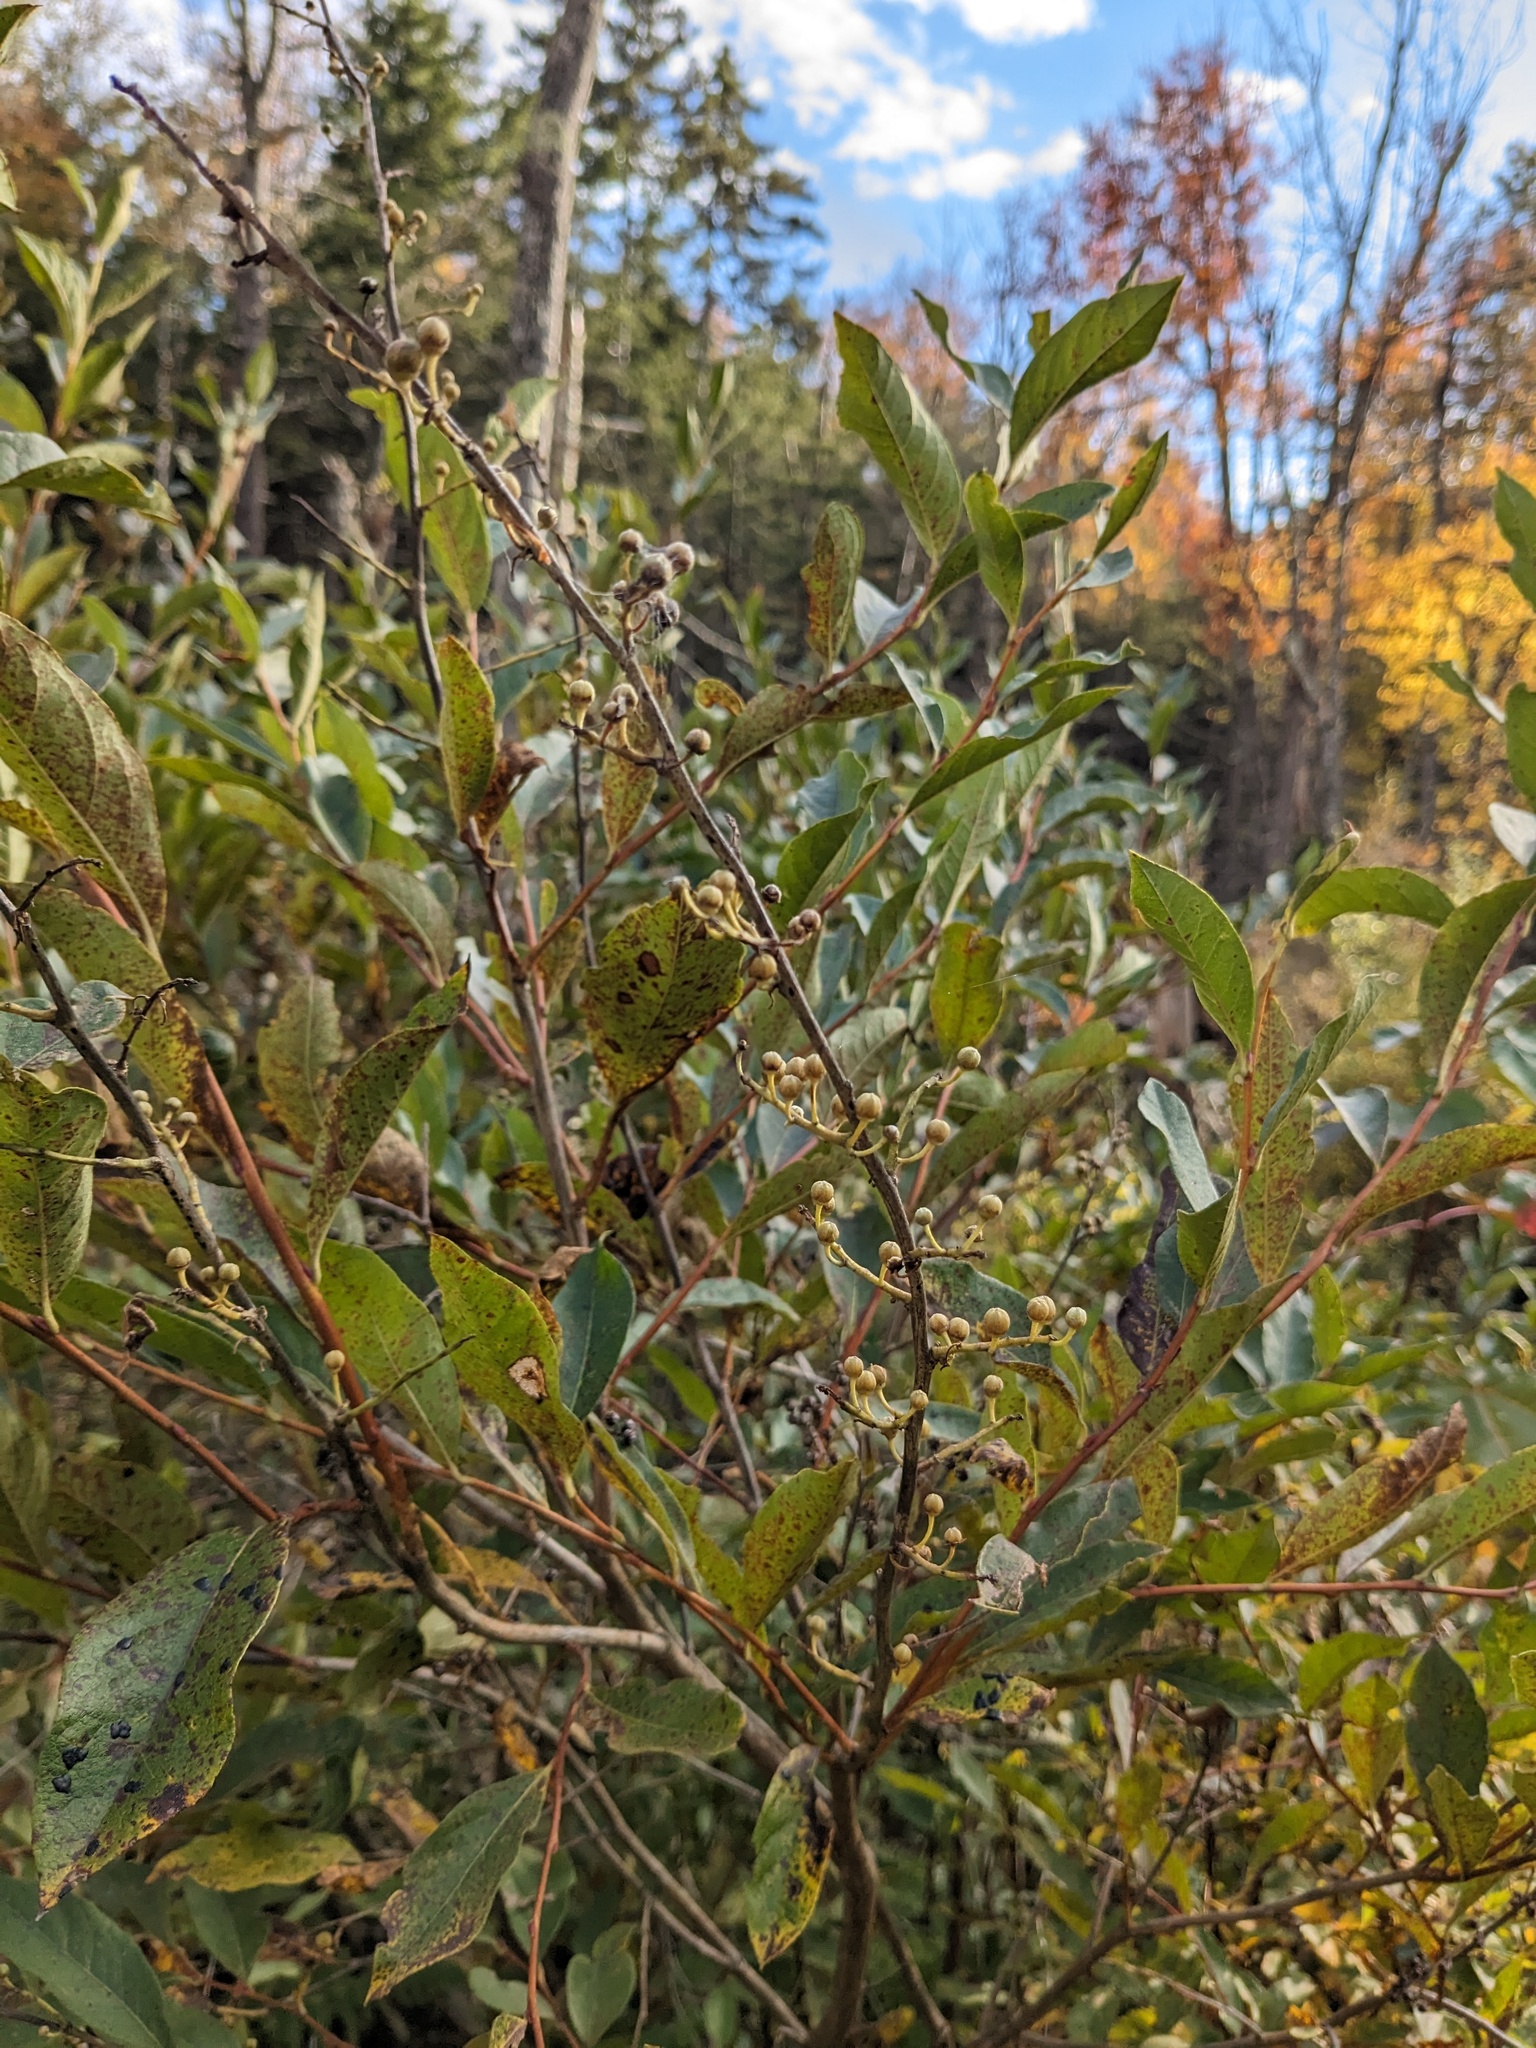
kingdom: Plantae
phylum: Tracheophyta
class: Magnoliopsida
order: Ericales
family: Ericaceae
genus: Lyonia
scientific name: Lyonia ligustrina
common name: Maleberry
